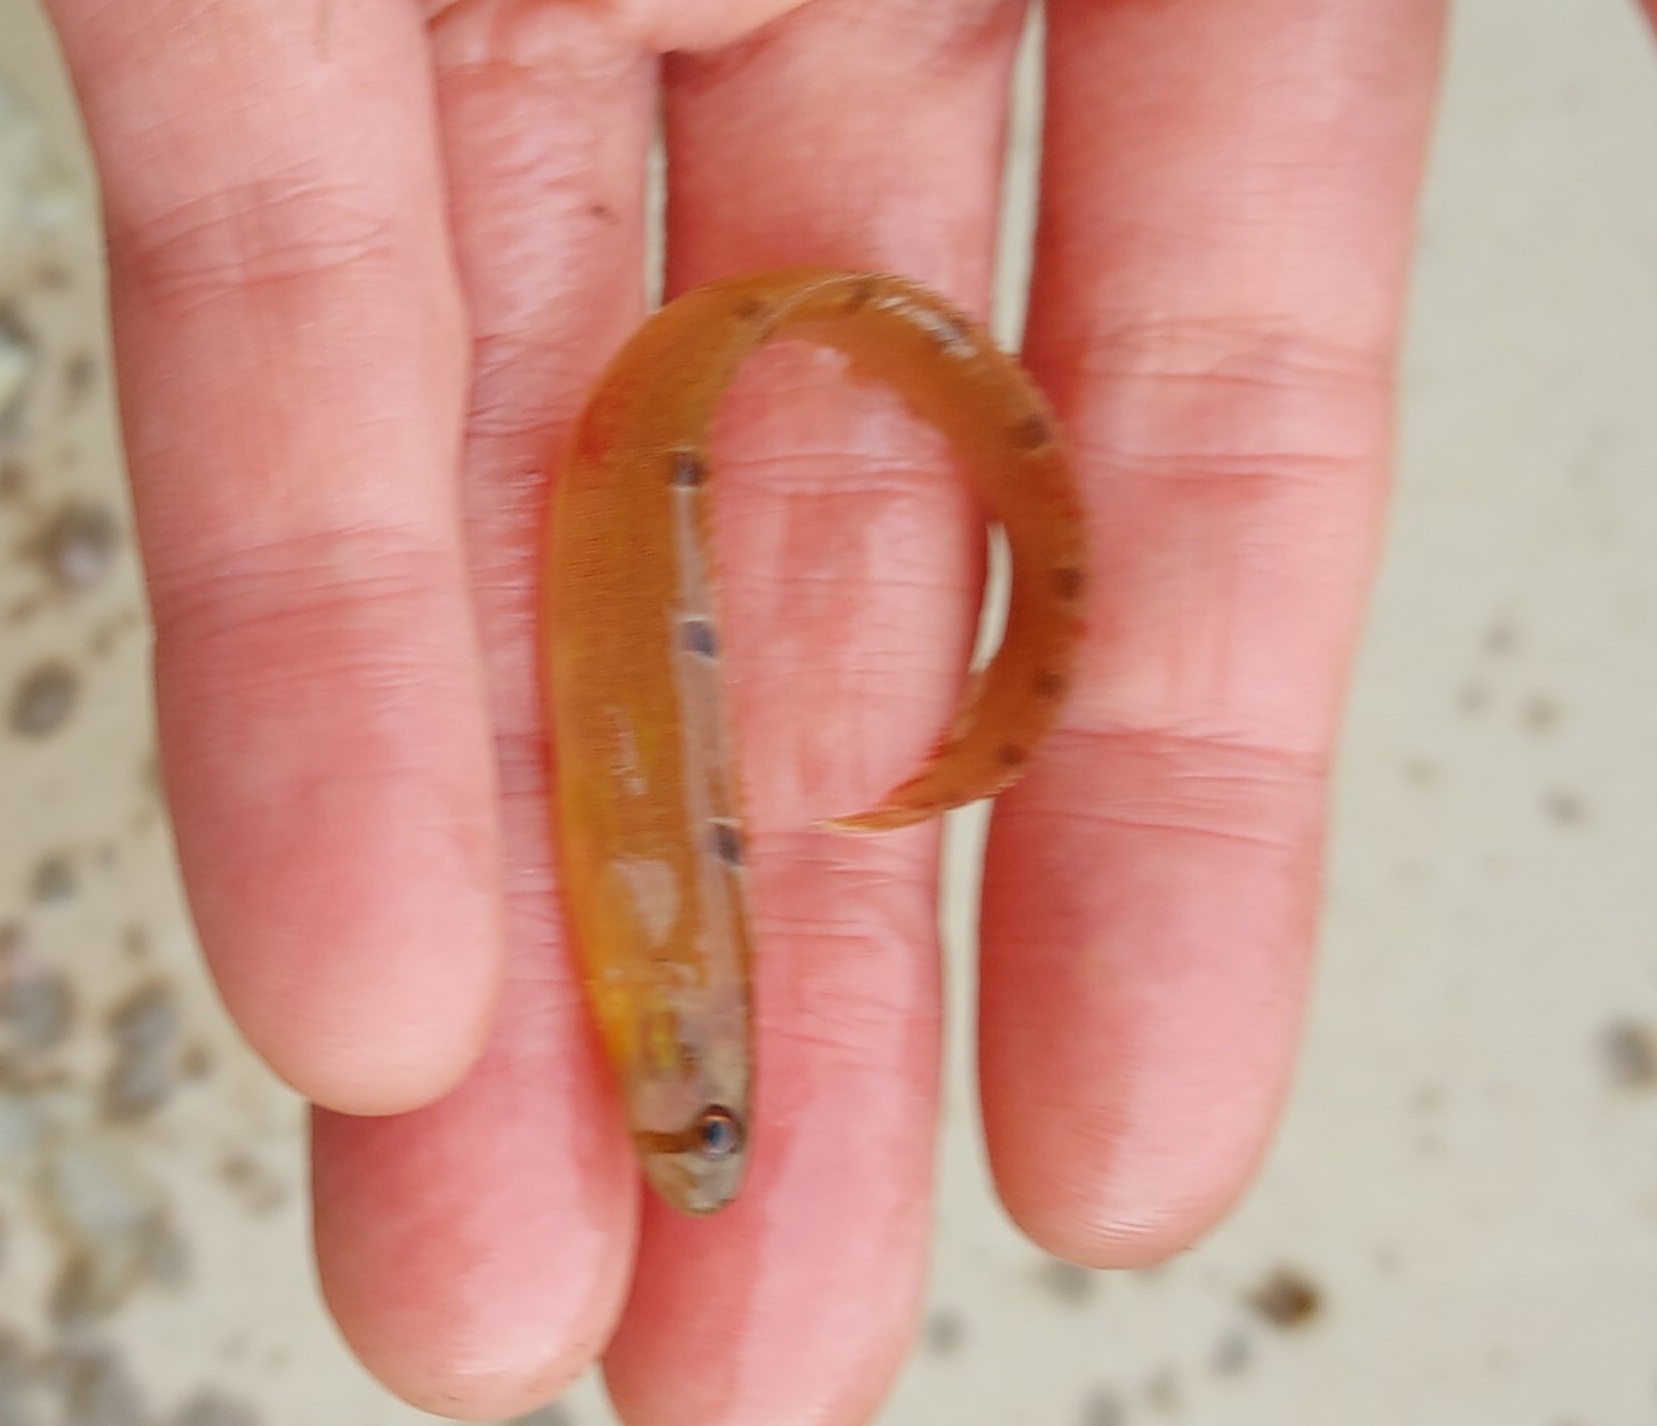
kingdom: Animalia
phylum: Chordata
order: Perciformes
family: Pholidae
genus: Pholis
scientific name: Pholis gunnellus
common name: Butterfish
